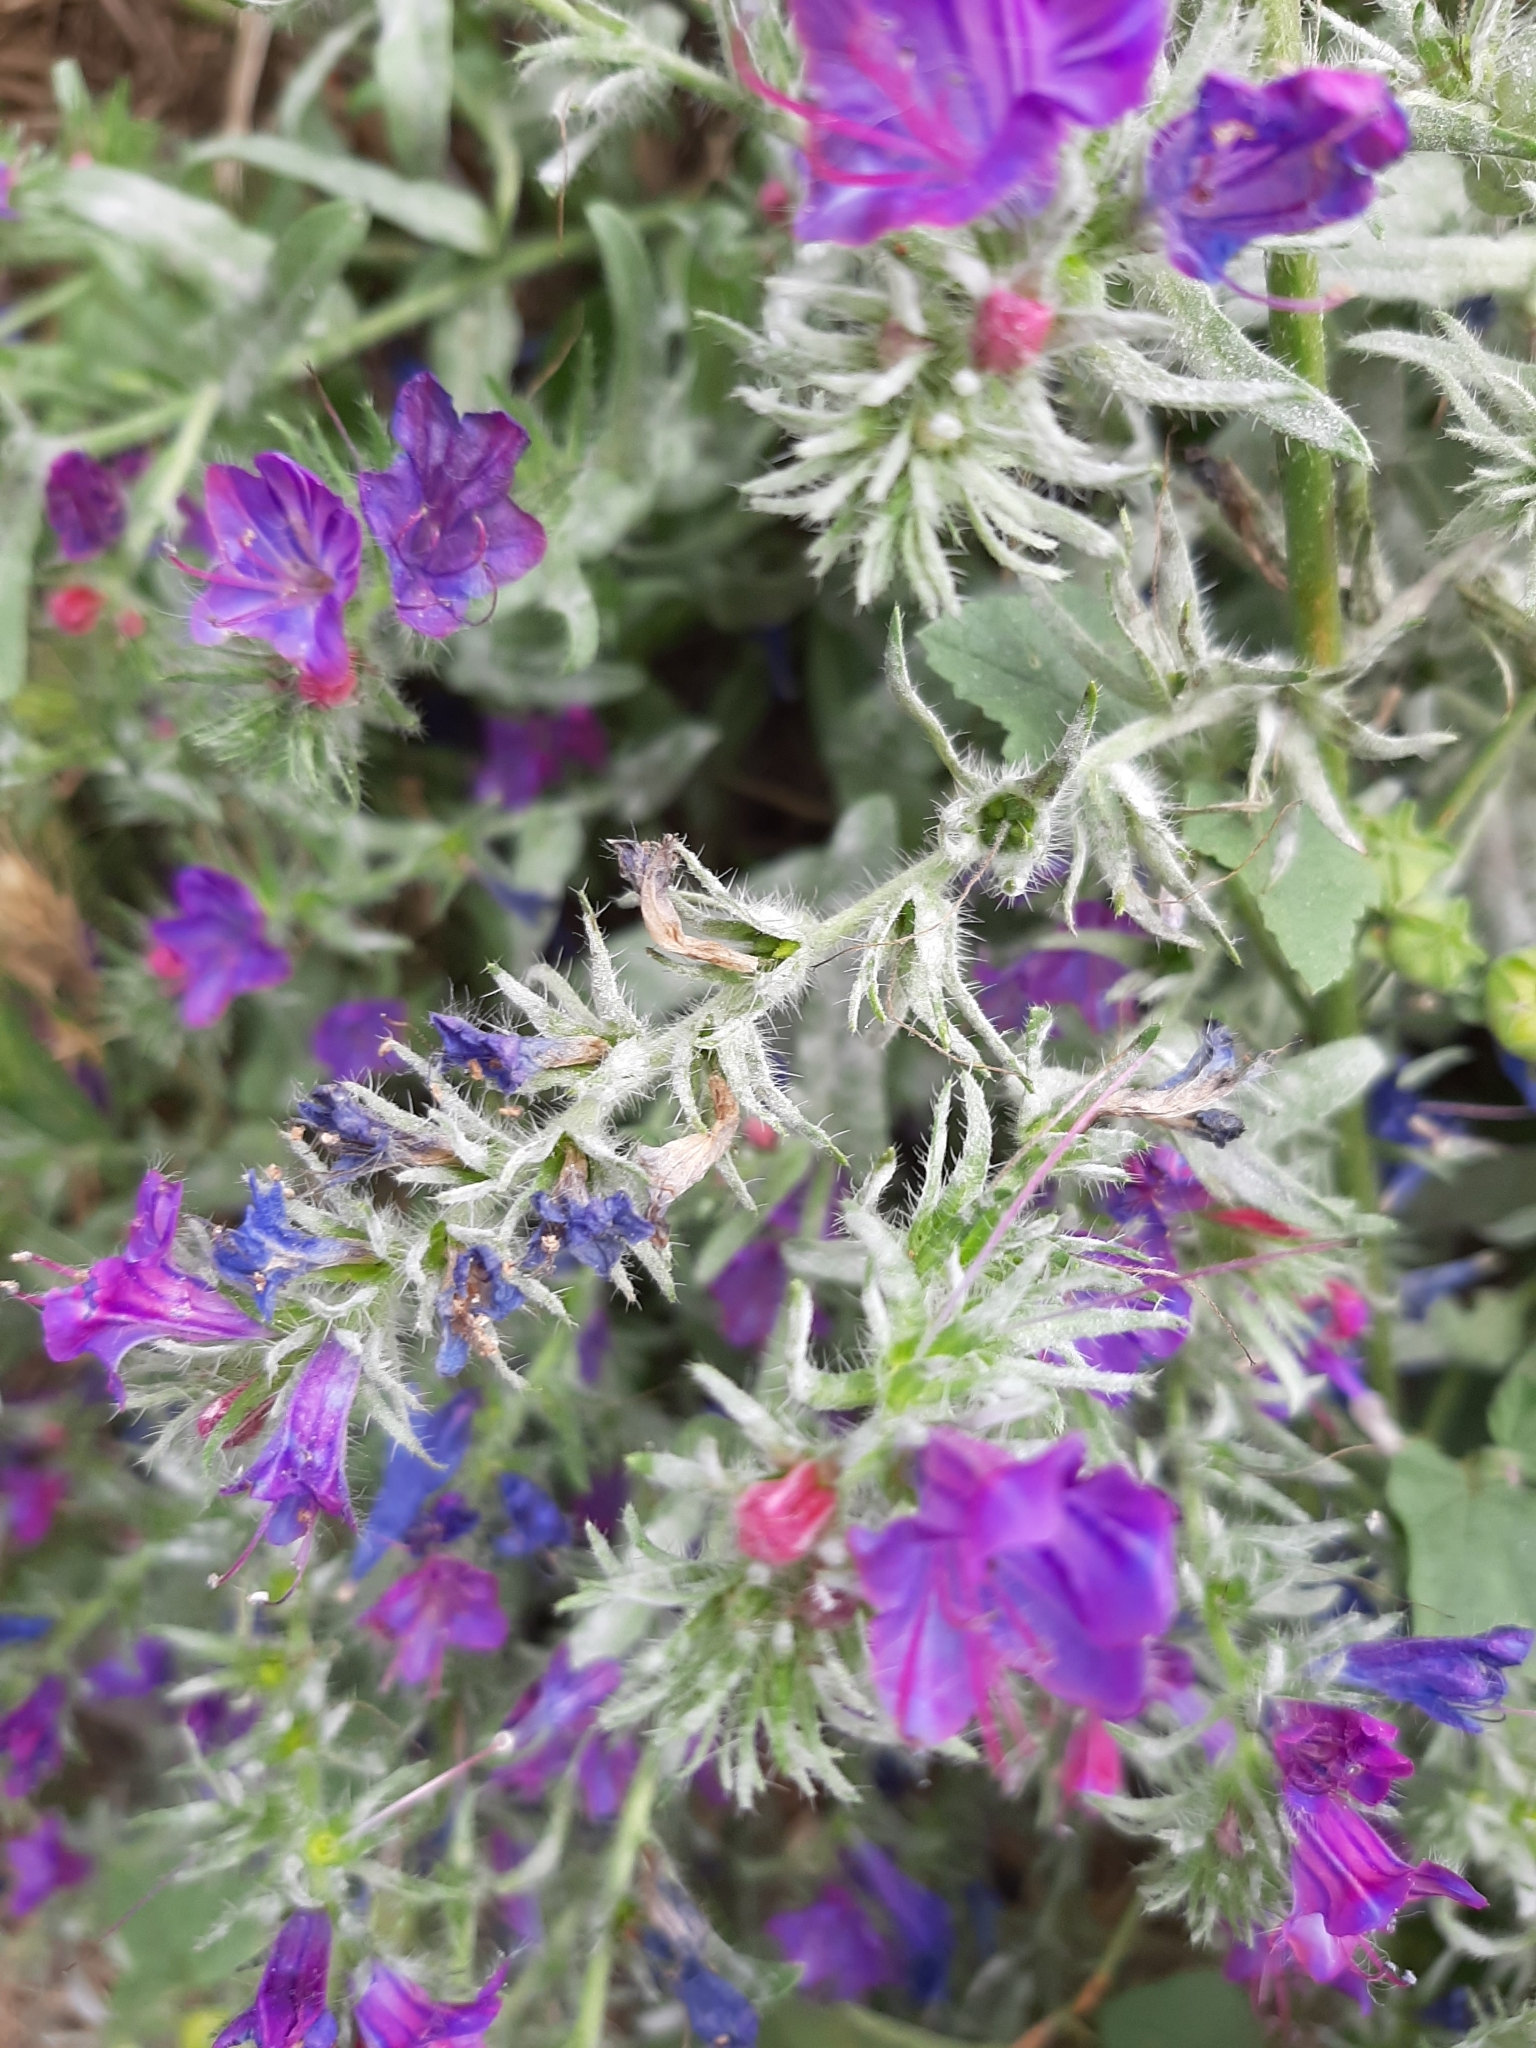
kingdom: Plantae
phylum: Tracheophyta
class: Magnoliopsida
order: Boraginales
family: Boraginaceae
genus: Echium
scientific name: Echium plantagineum
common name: Purple viper's-bugloss
